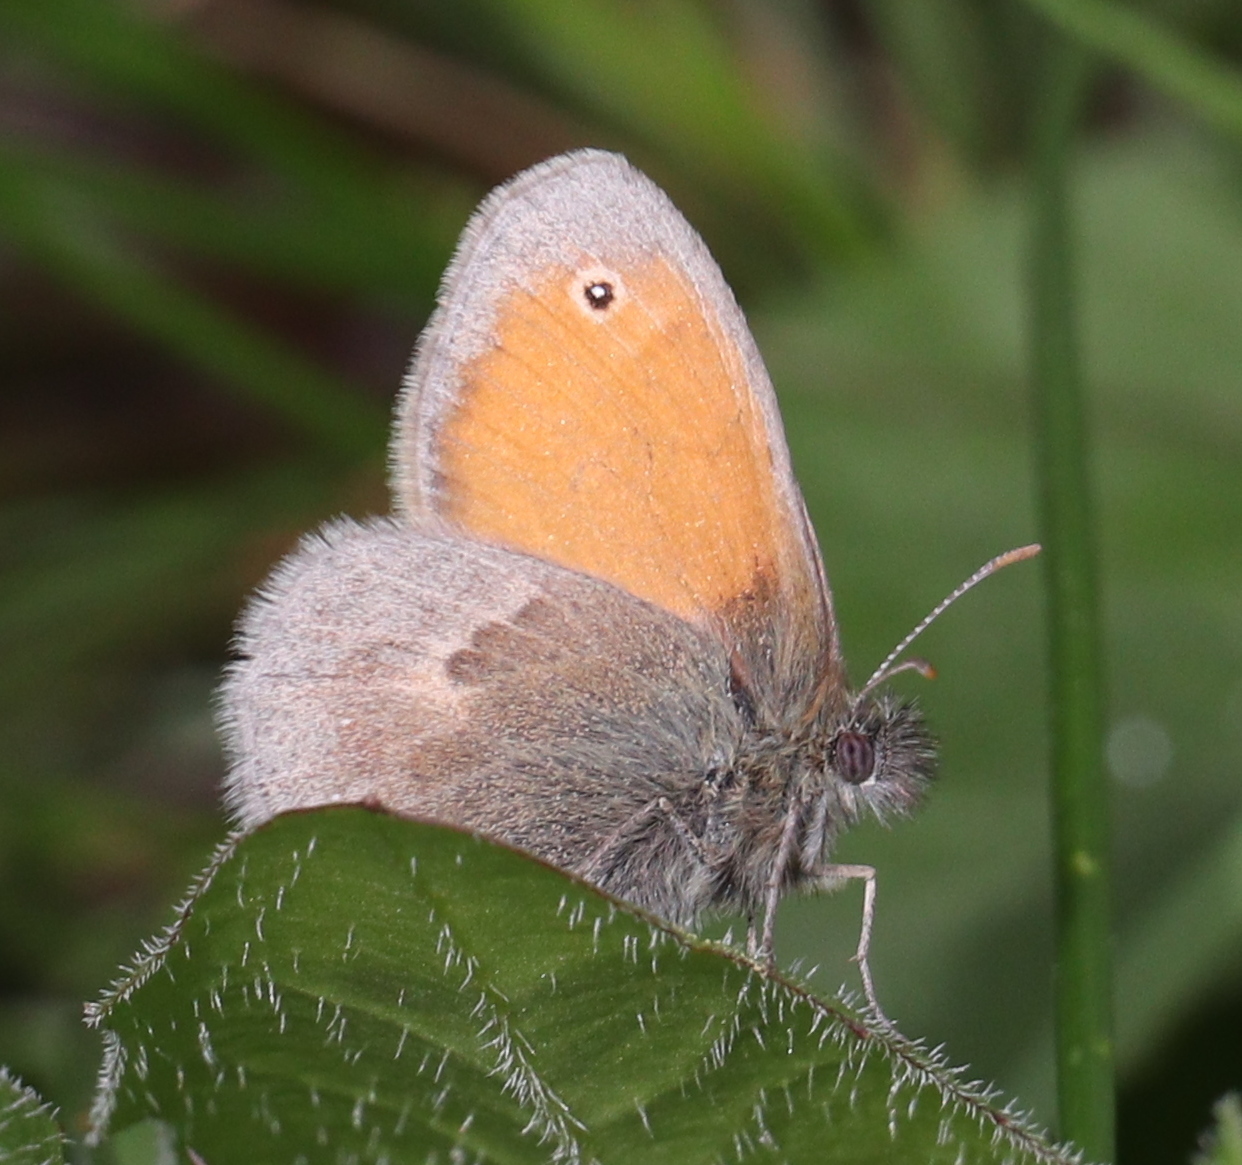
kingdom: Animalia
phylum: Arthropoda
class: Insecta
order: Lepidoptera
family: Nymphalidae
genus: Coenonympha
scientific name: Coenonympha pamphilus
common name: Small heath
